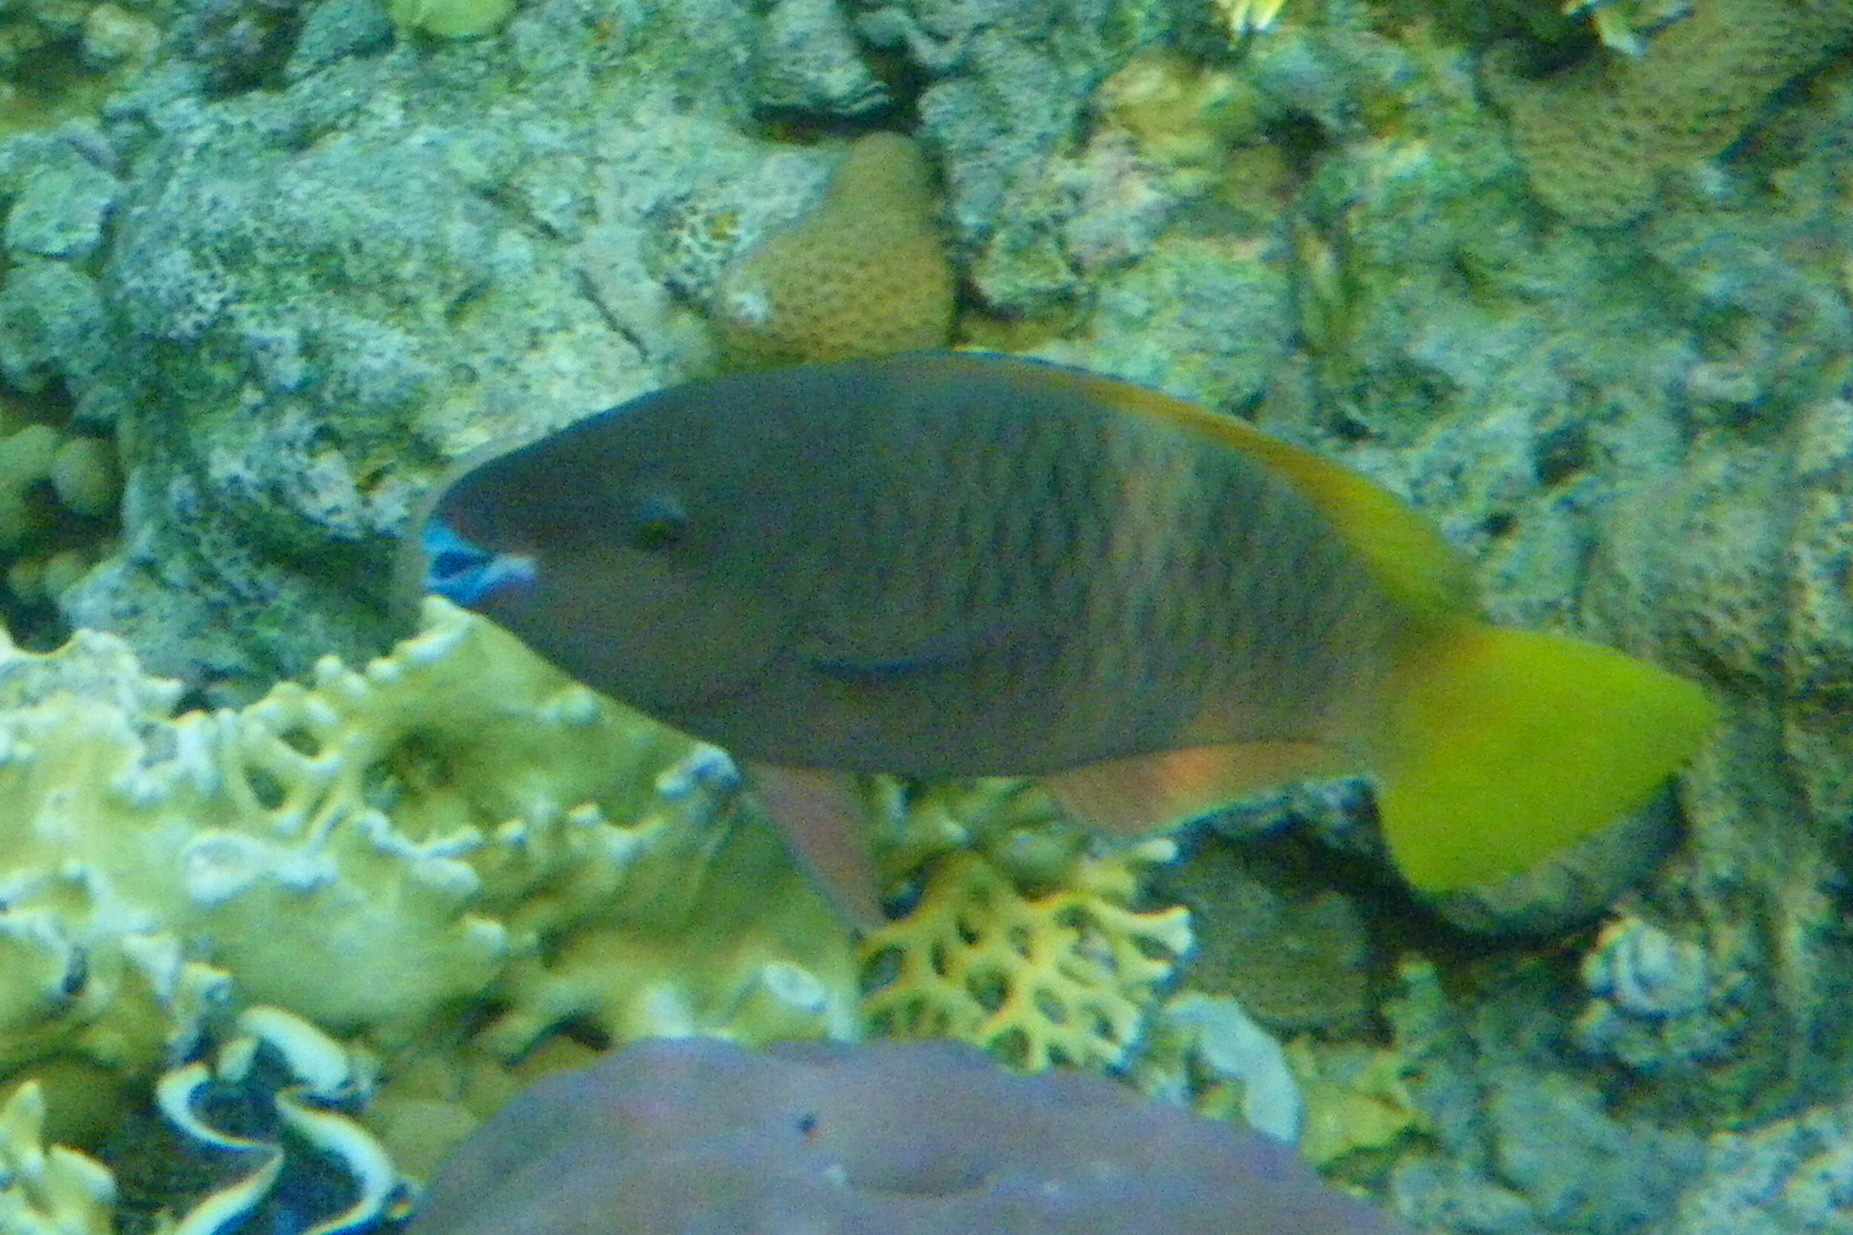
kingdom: Animalia
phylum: Chordata
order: Perciformes
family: Scaridae
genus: Scarus
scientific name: Scarus ferrugineus
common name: Rusty parrotfish
